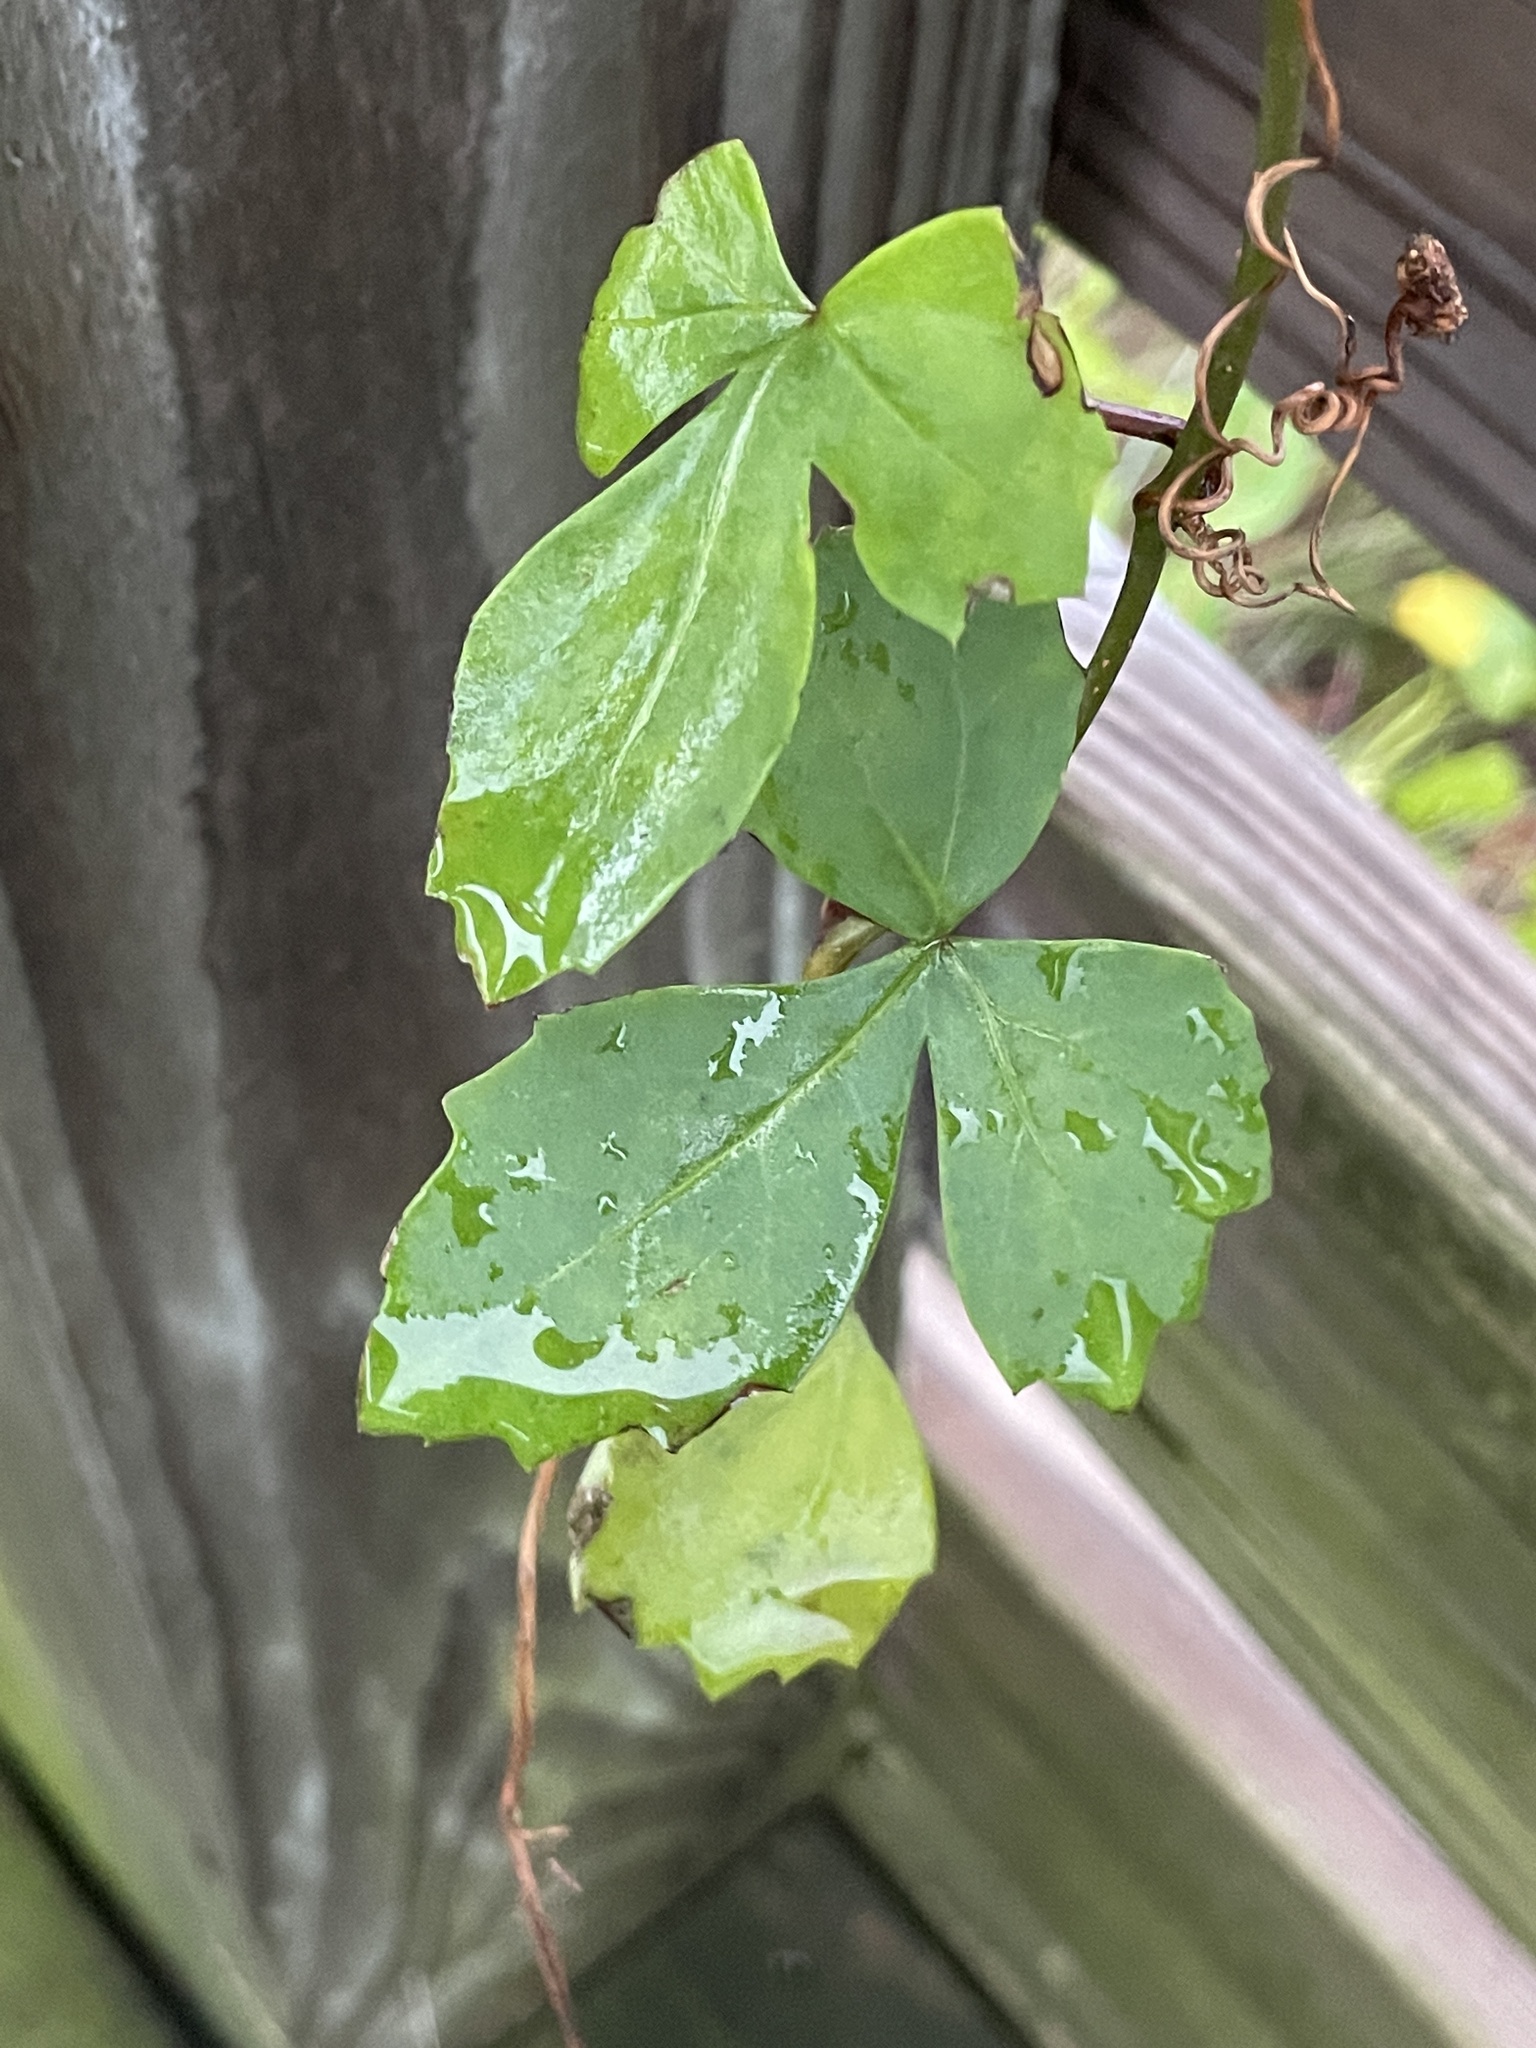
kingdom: Plantae
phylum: Tracheophyta
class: Magnoliopsida
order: Vitales
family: Vitaceae
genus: Cissus
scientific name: Cissus trifoliata
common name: Vine-sorrel
